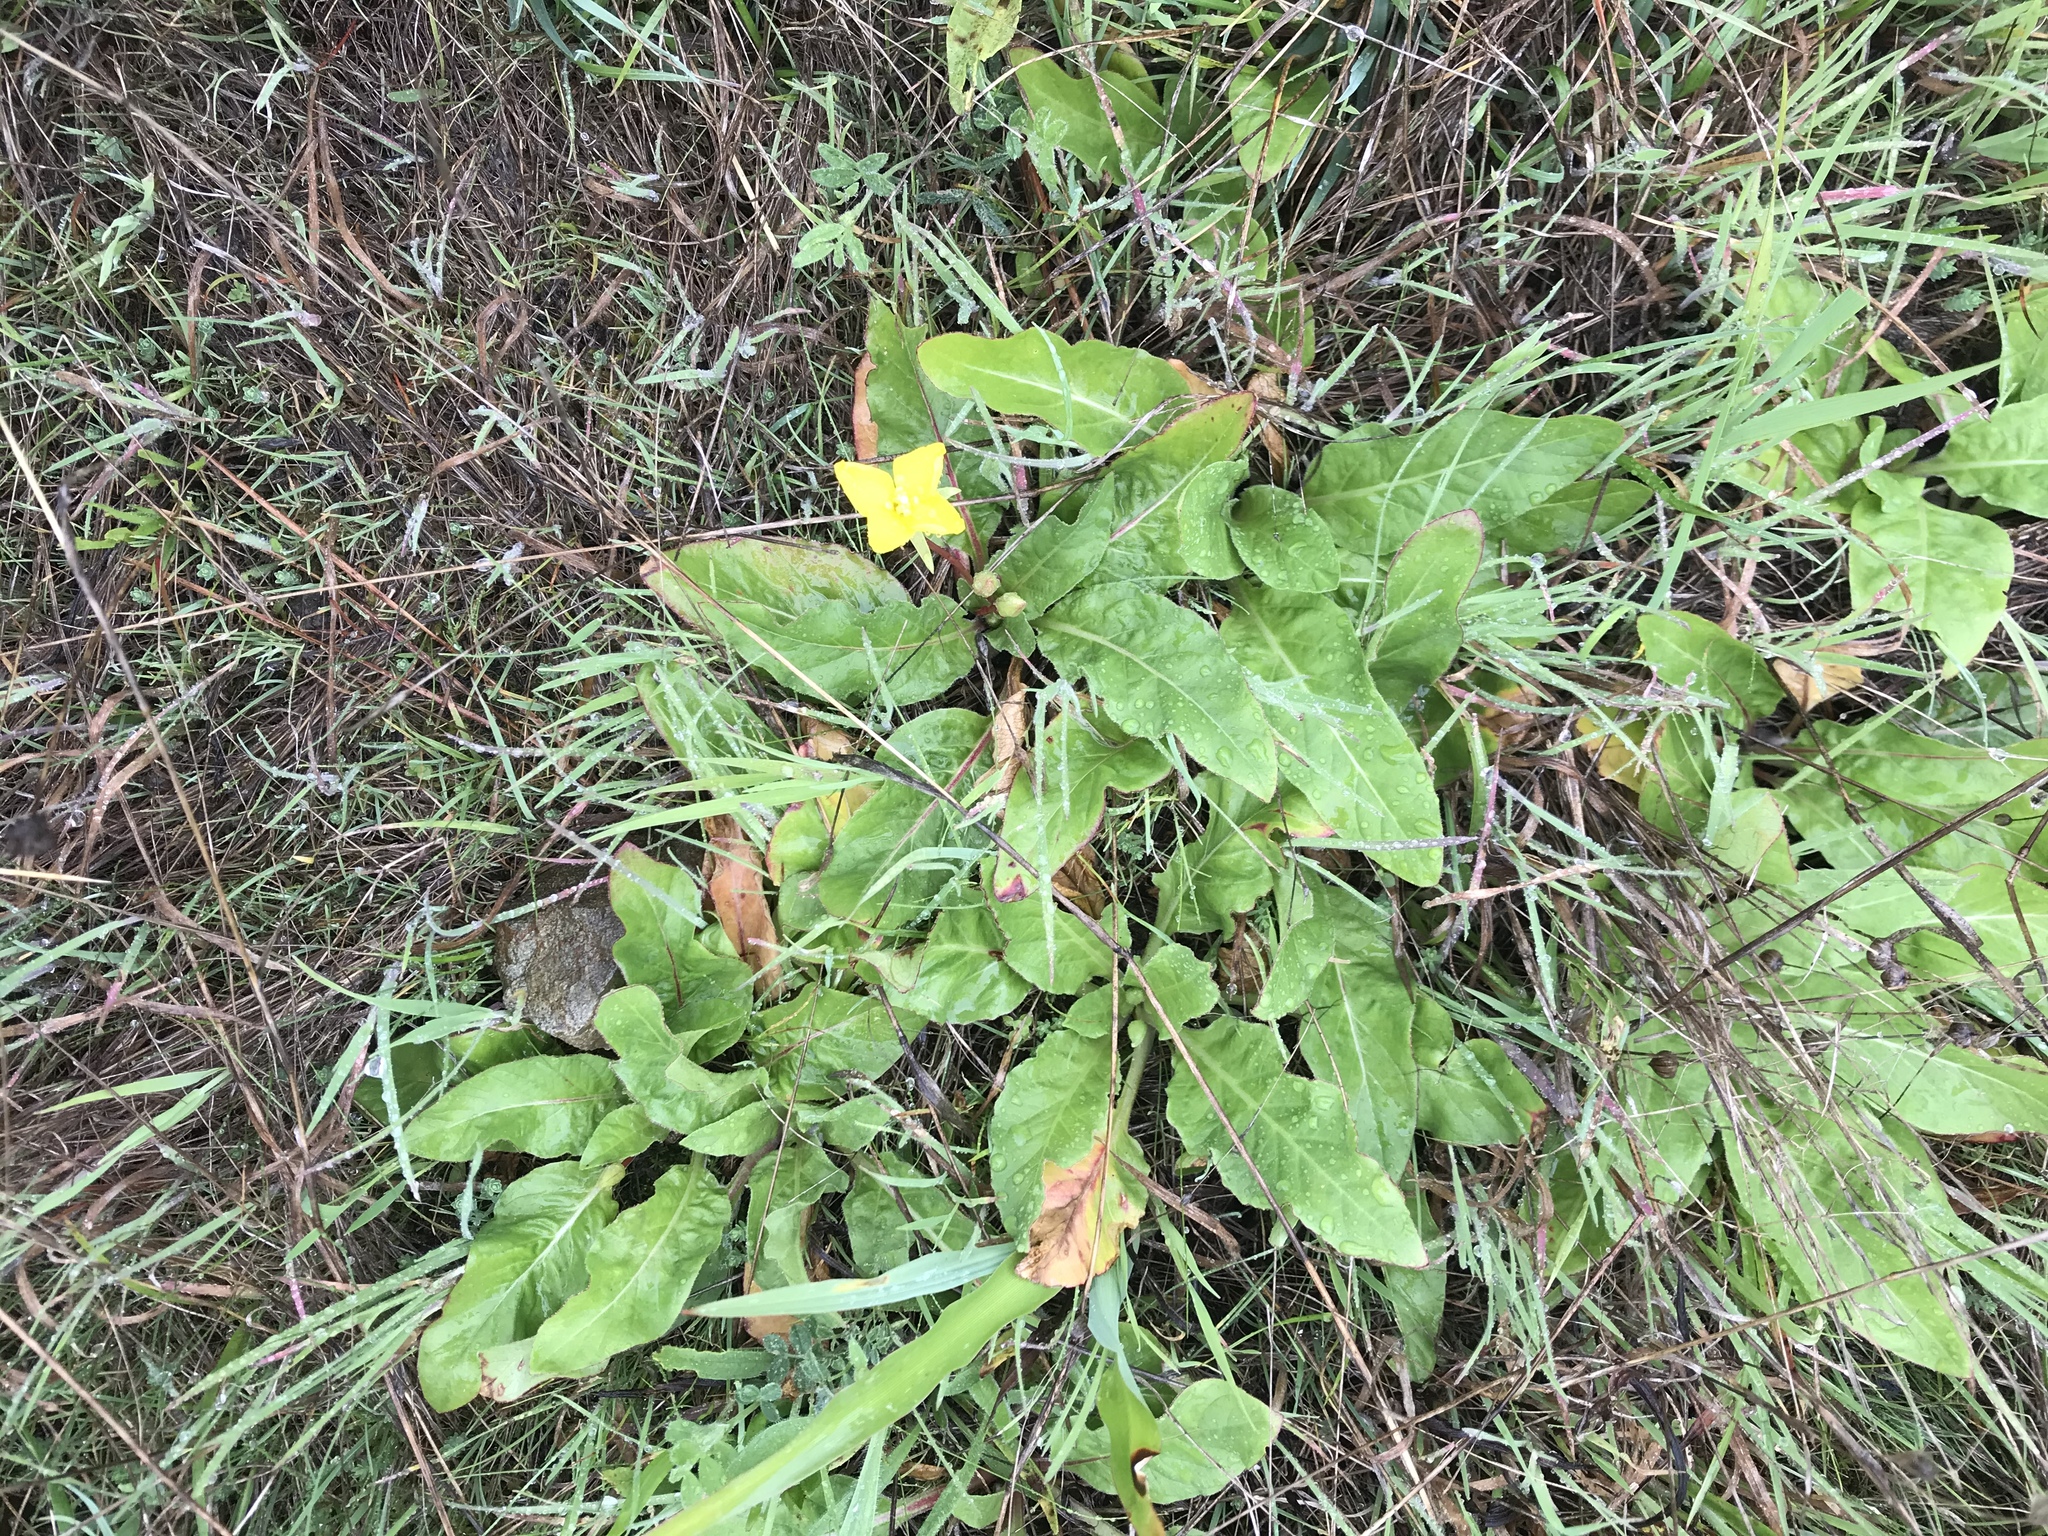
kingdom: Plantae
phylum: Tracheophyta
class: Magnoliopsida
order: Myrtales
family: Onagraceae
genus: Taraxia
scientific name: Taraxia ovata
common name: Goldeneggs
